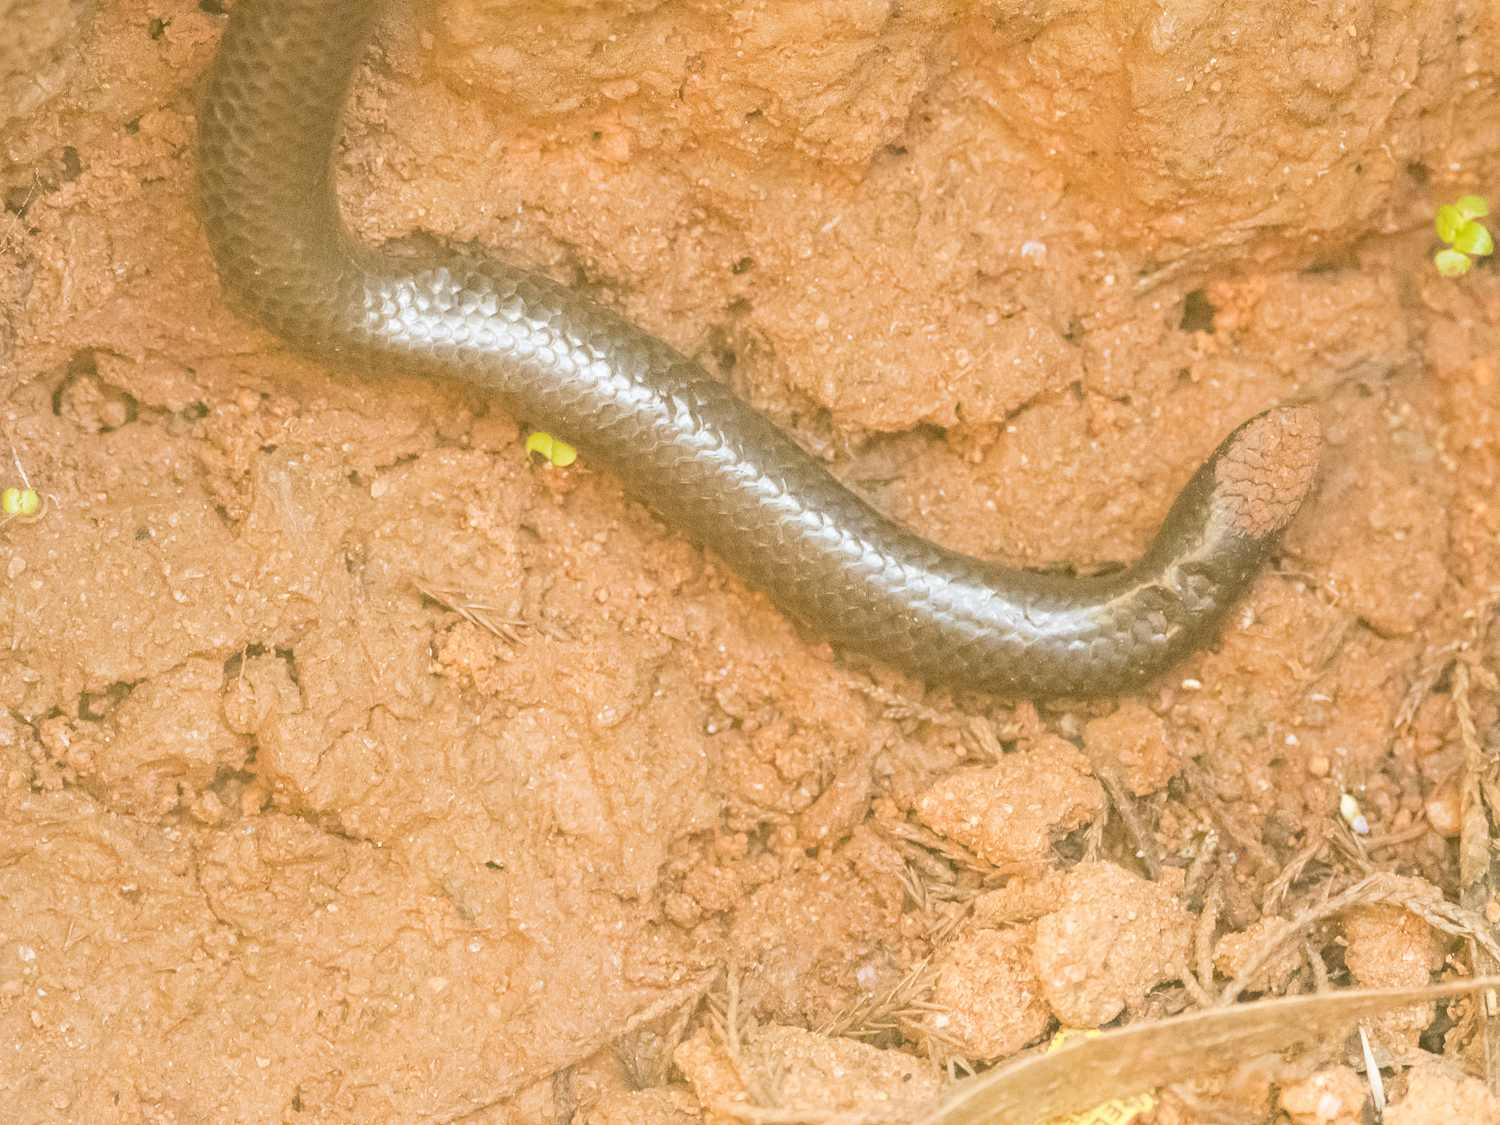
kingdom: Animalia
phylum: Chordata
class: Squamata
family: Uropeltidae
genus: Uropeltis
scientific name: Uropeltis ellioti
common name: Elliot's earth snake
